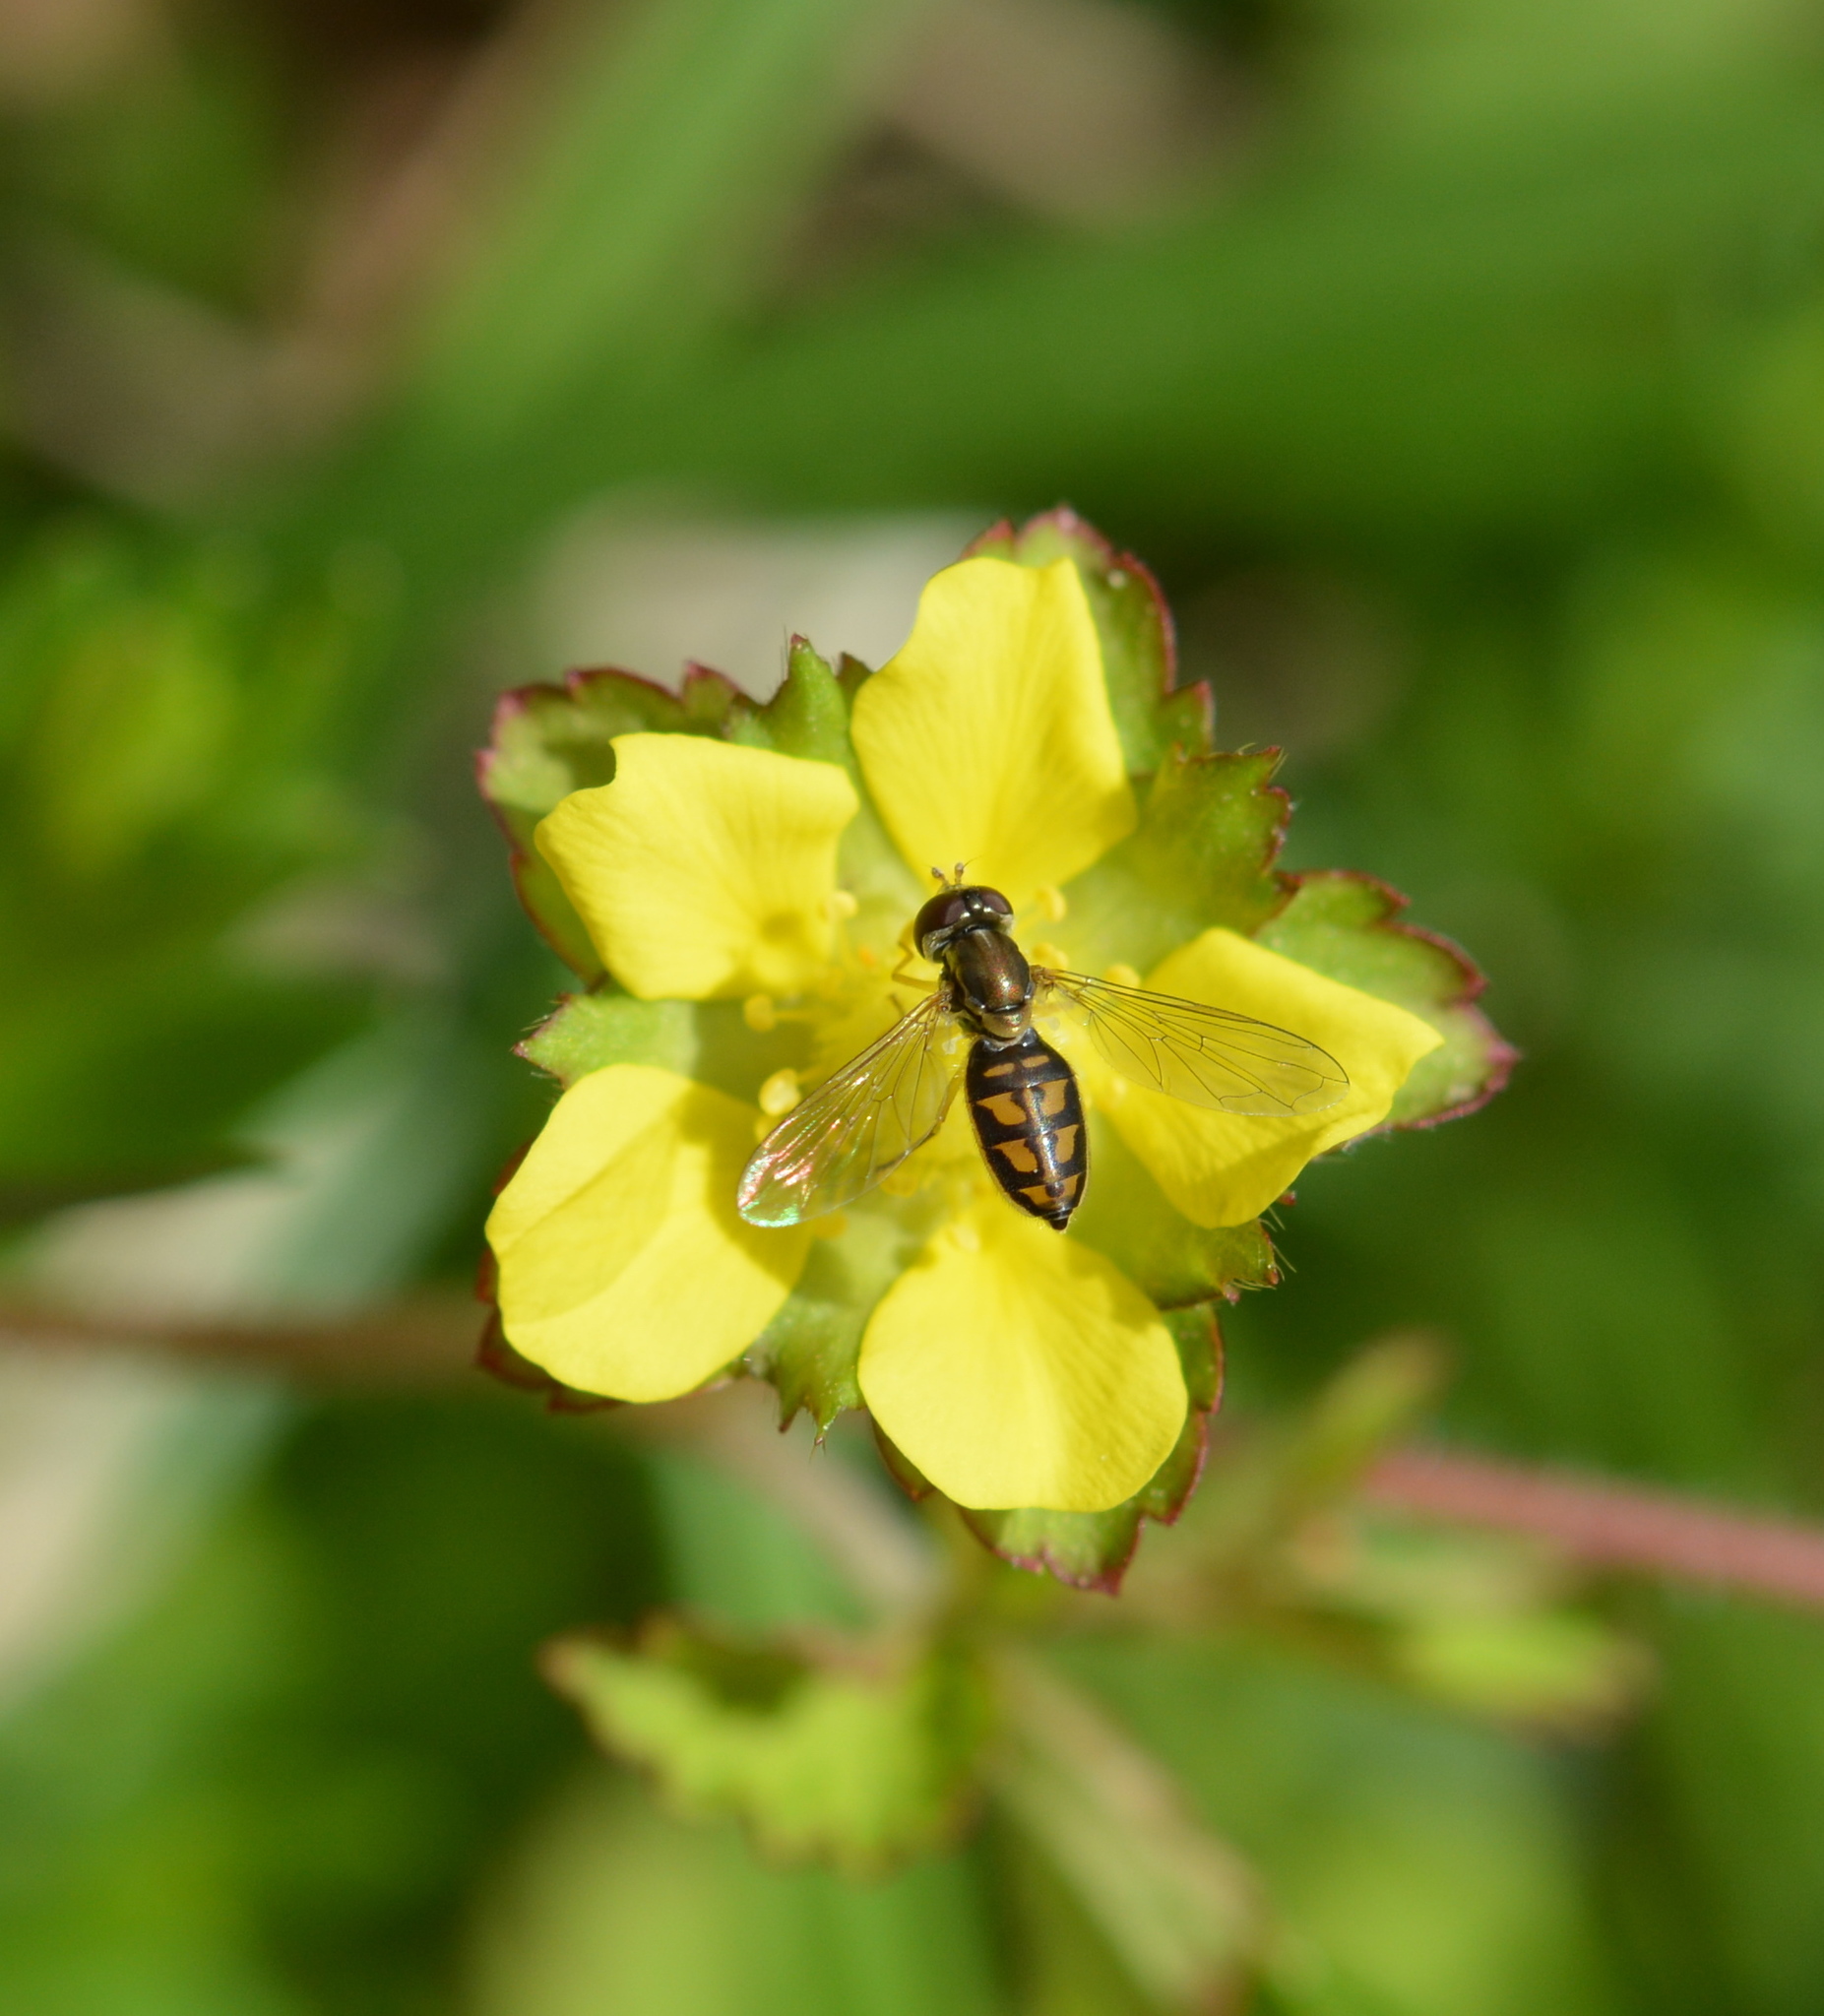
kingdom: Animalia
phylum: Arthropoda
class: Insecta
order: Diptera
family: Syrphidae
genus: Toxomerus
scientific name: Toxomerus marginatus
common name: Syrphid fly
